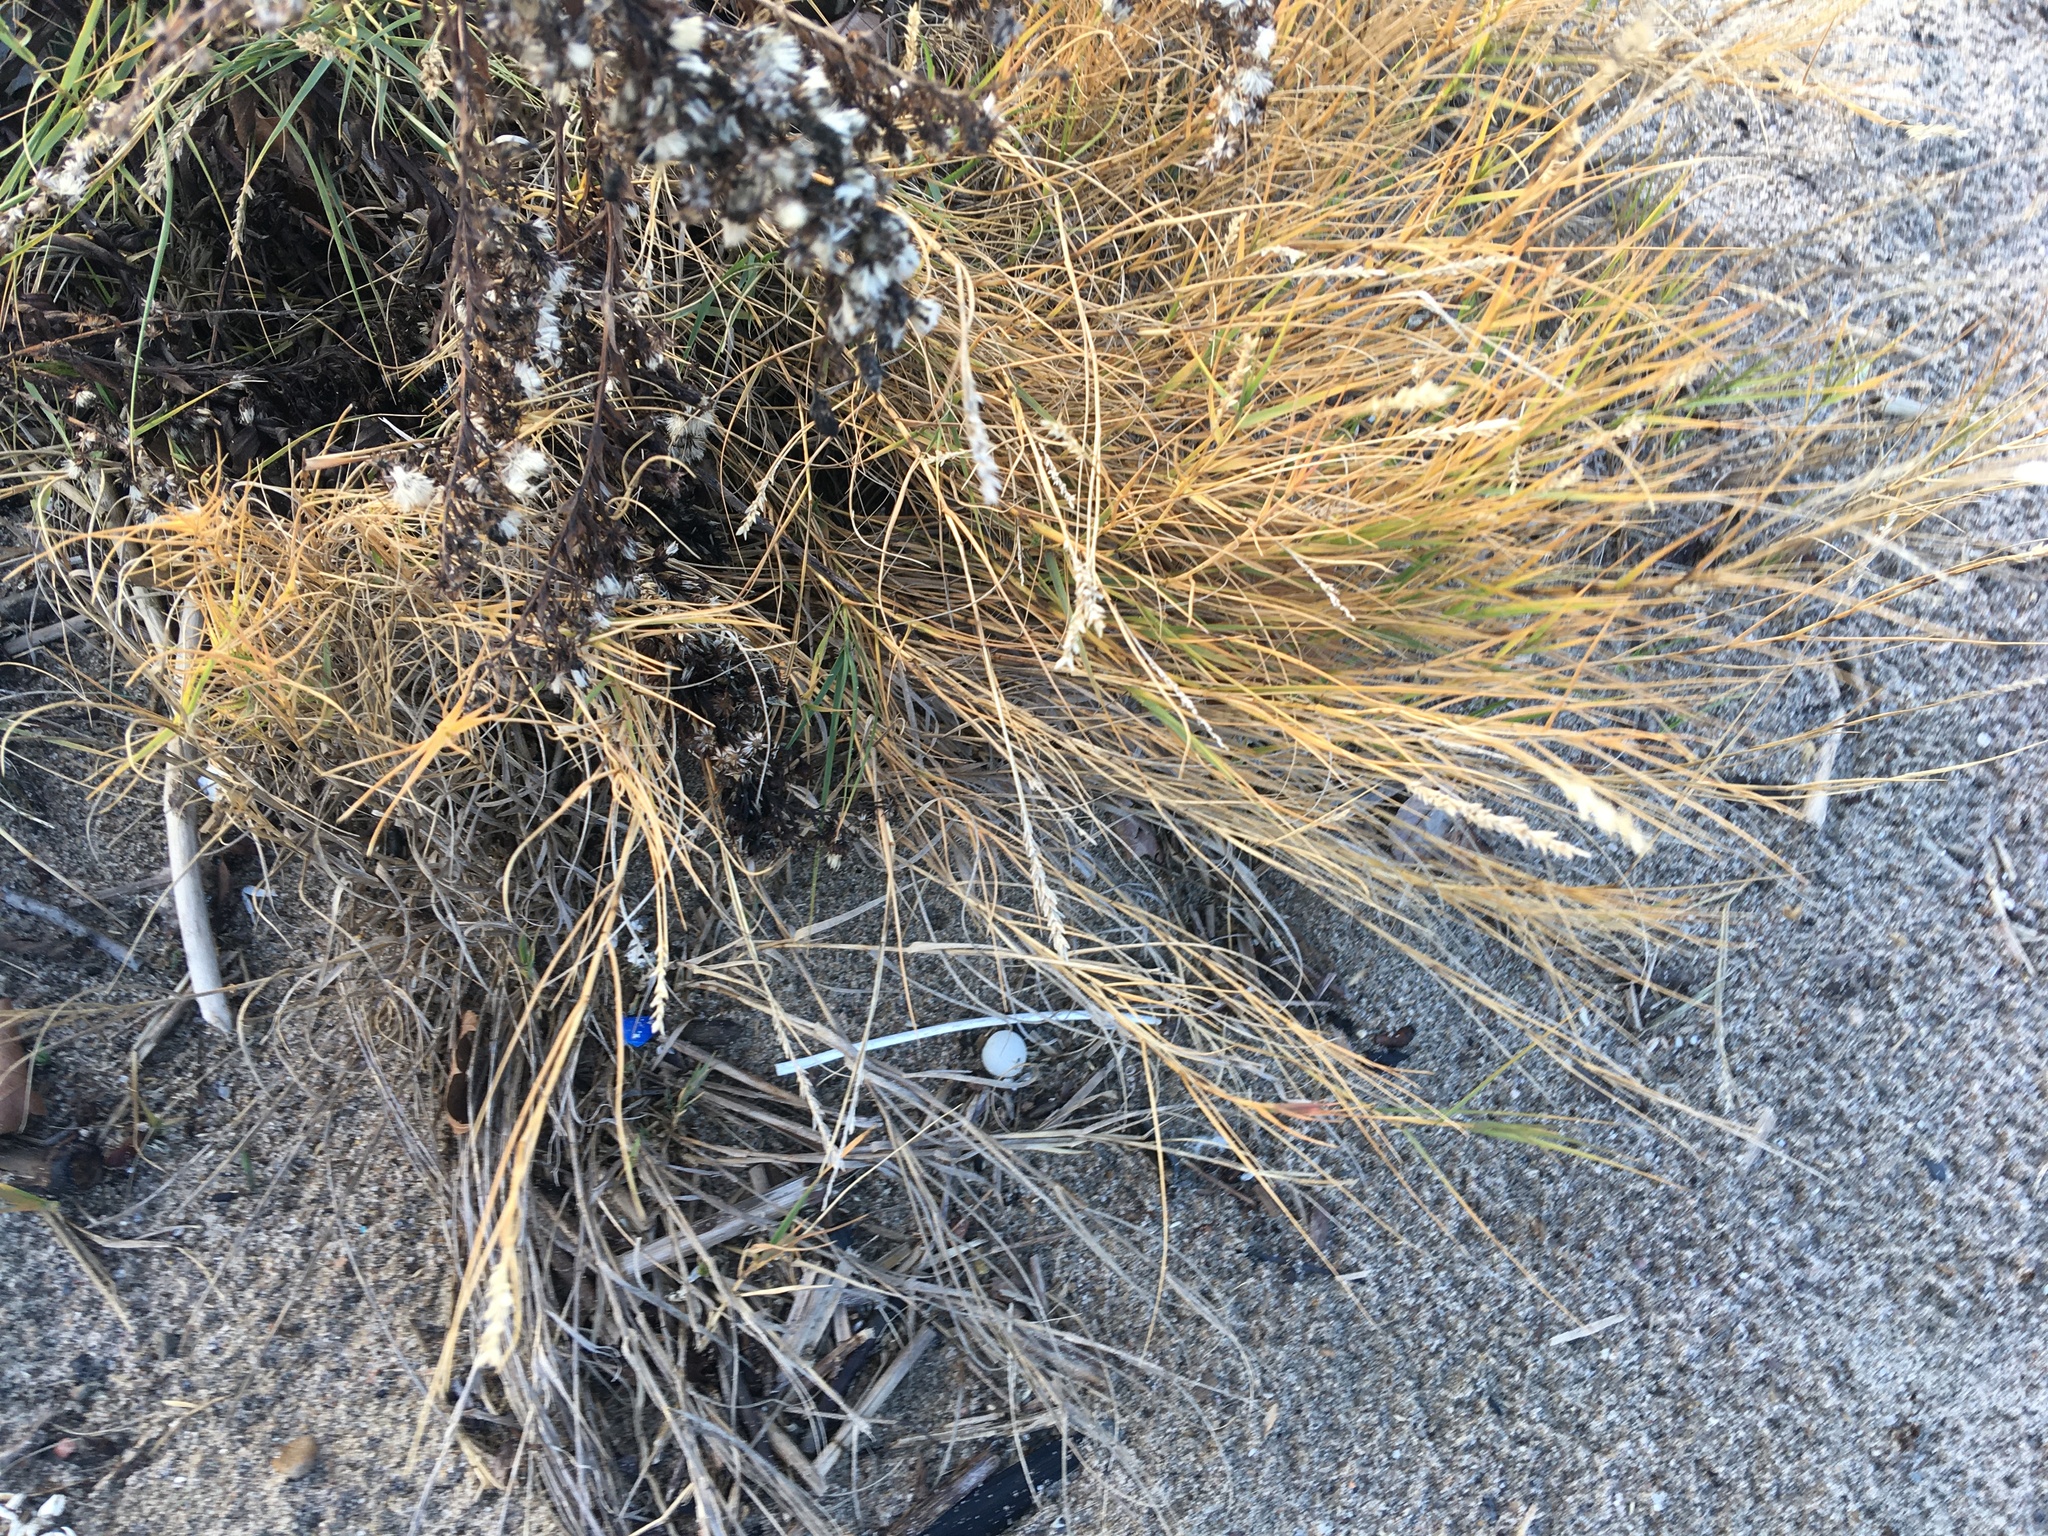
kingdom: Plantae
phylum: Tracheophyta
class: Liliopsida
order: Poales
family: Poaceae
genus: Distichlis
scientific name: Distichlis spicata
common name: Saltgrass
